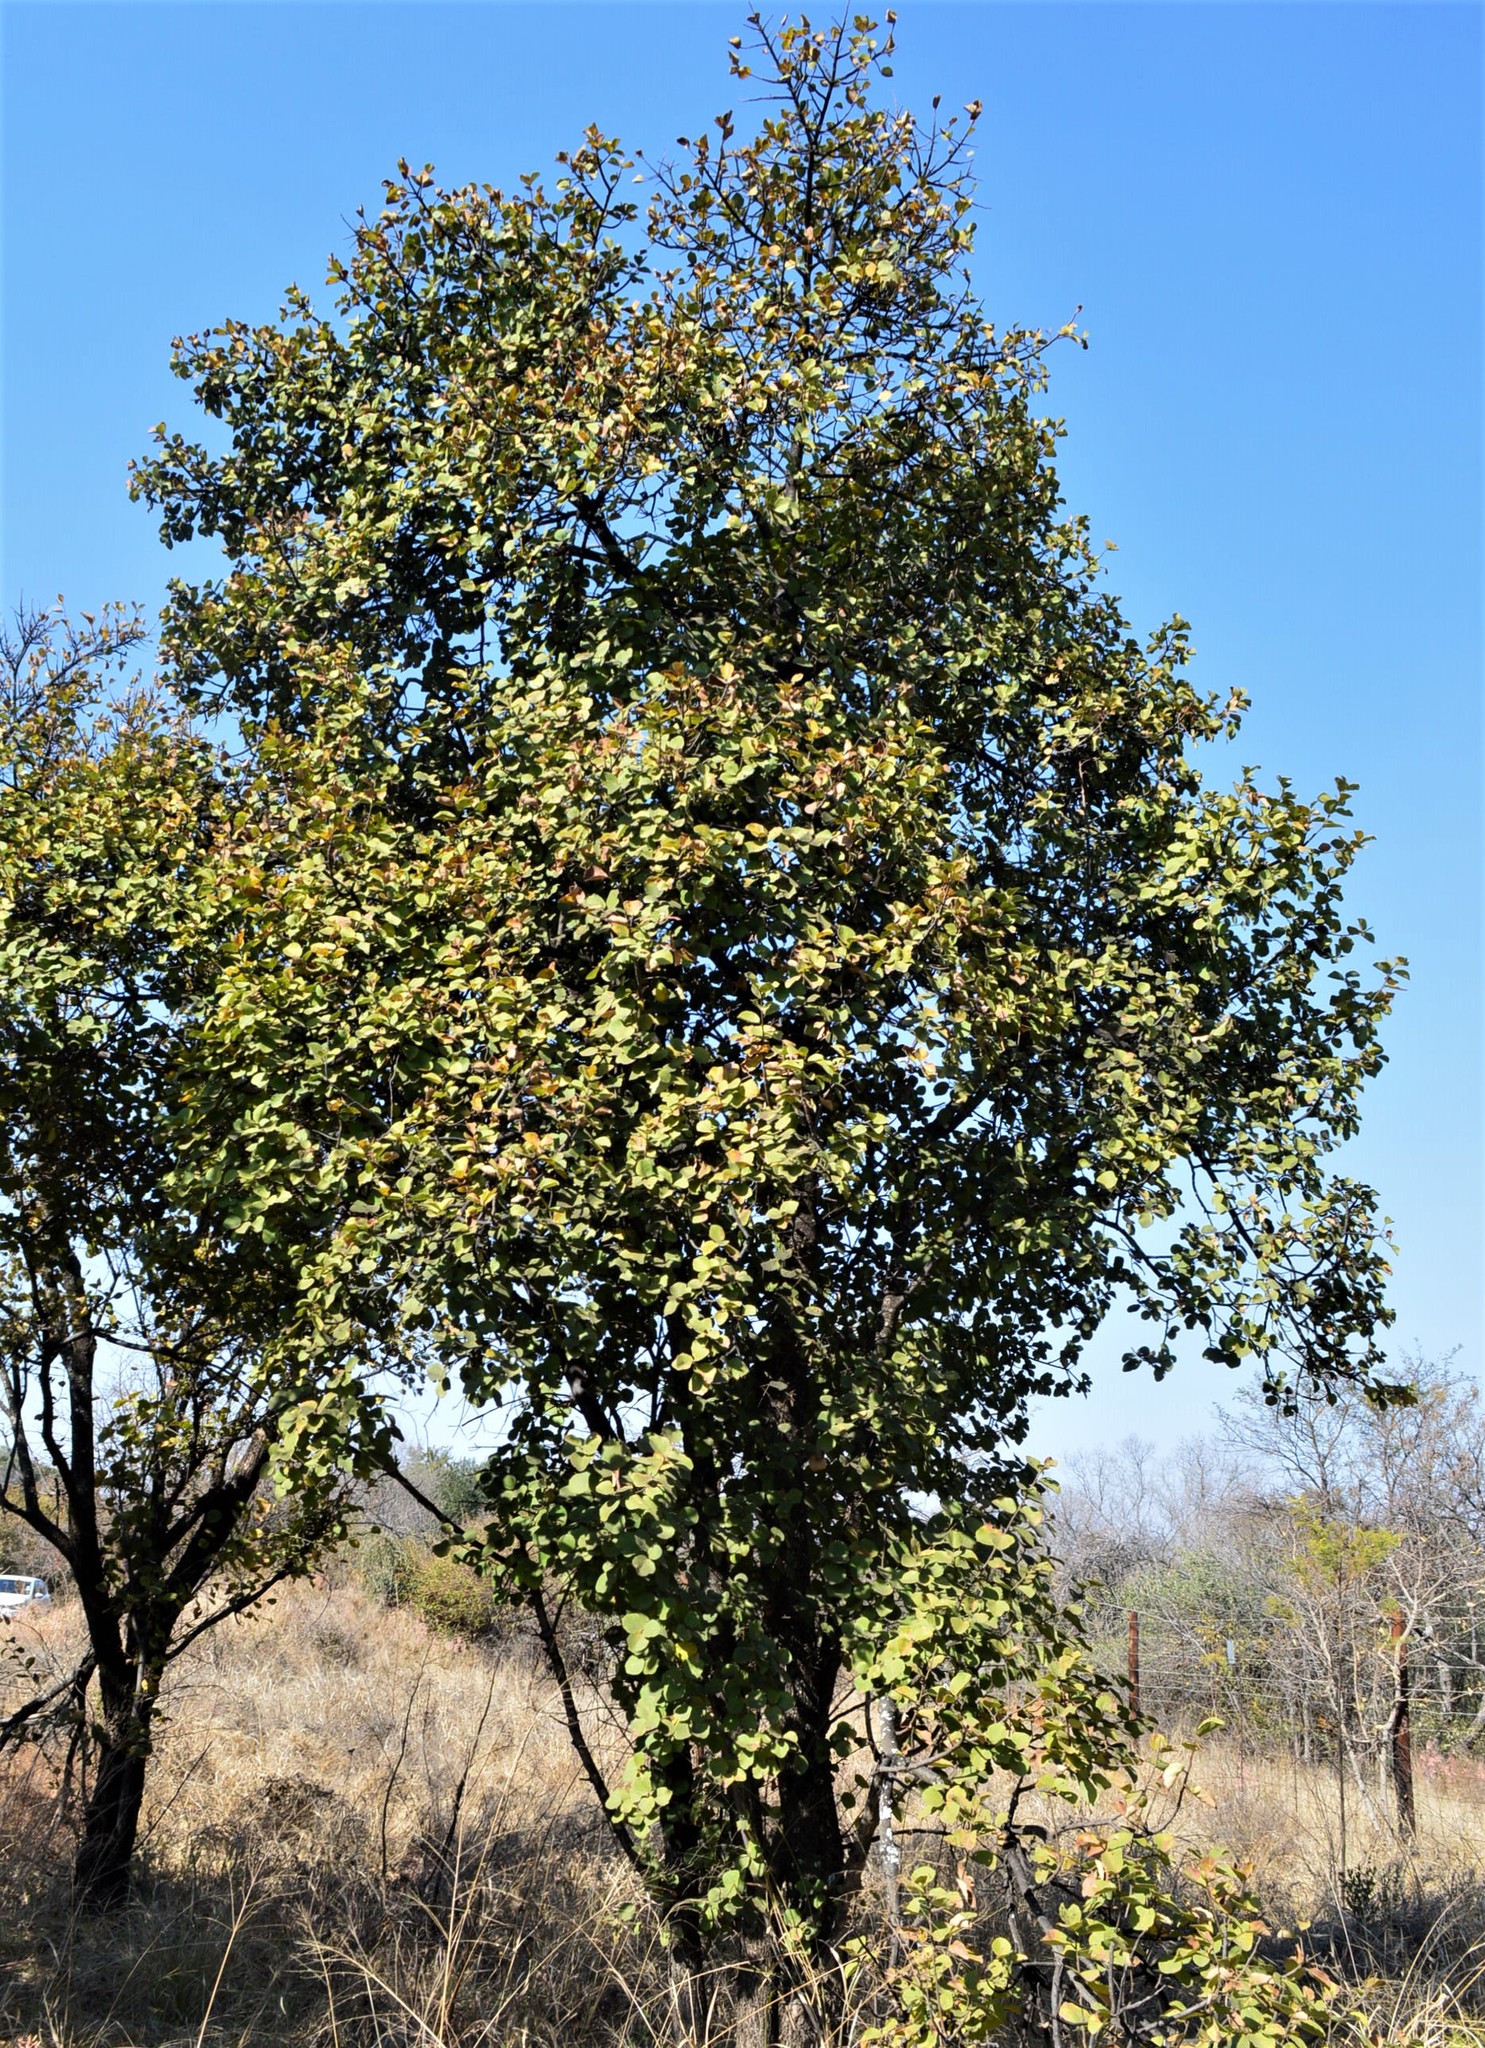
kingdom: Plantae
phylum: Tracheophyta
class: Magnoliopsida
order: Malvales
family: Malvaceae
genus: Dombeya
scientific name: Dombeya rotundifolia
